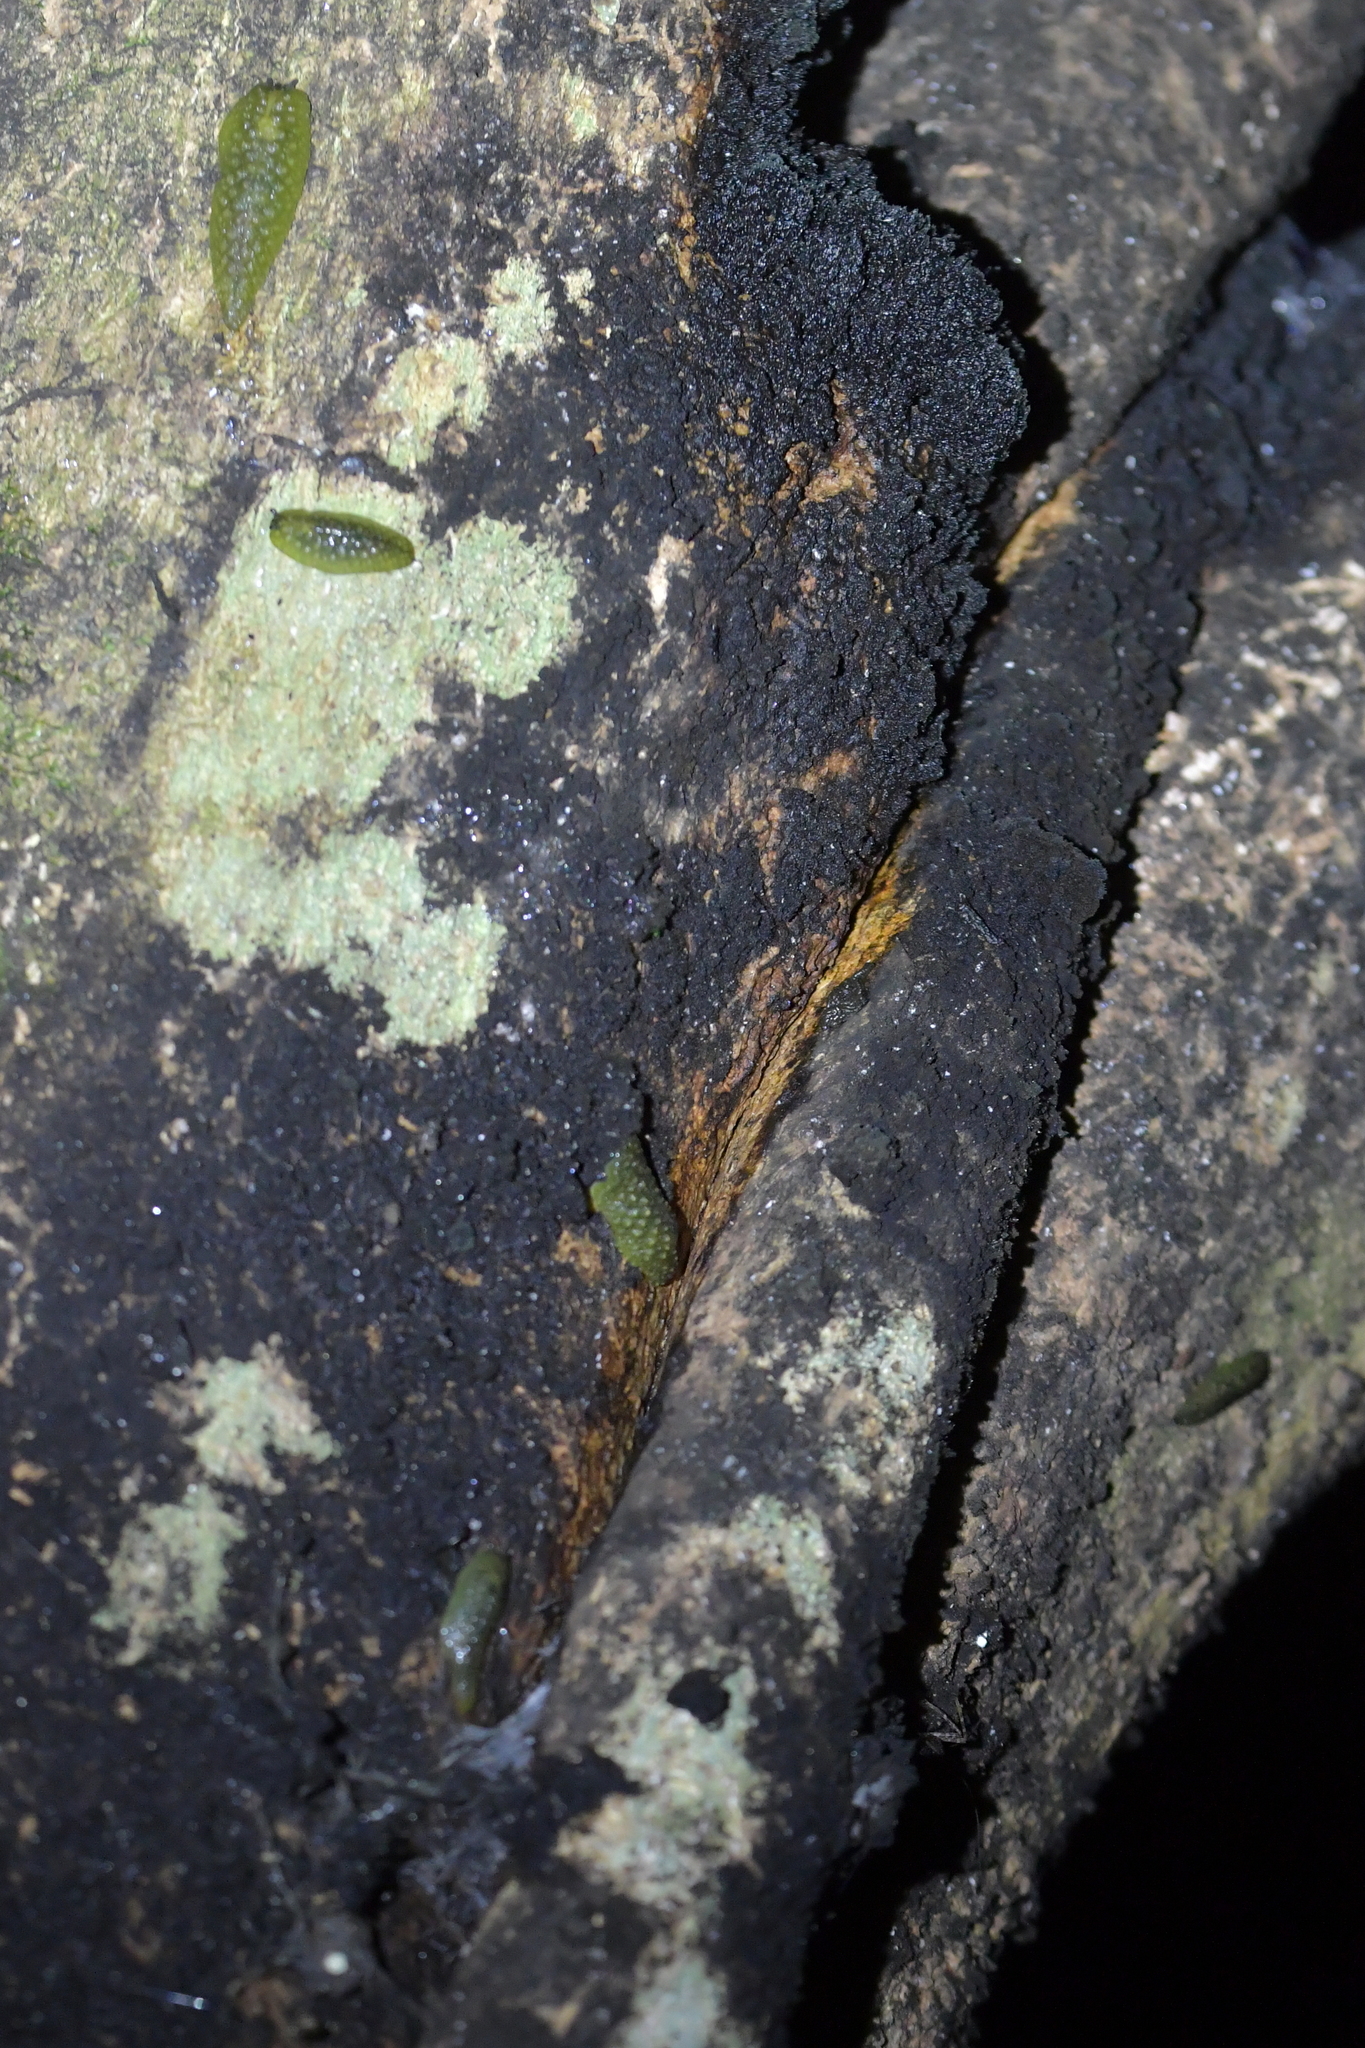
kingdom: Animalia
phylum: Mollusca
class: Gastropoda
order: Stylommatophora
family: Athoracophoridae
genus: Athoracophorus
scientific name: Athoracophorus papillatus
